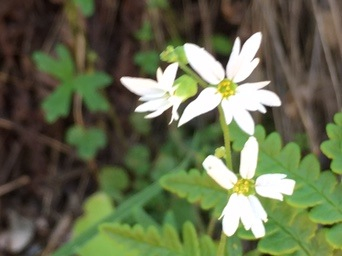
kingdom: Plantae
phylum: Tracheophyta
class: Magnoliopsida
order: Saxifragales
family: Saxifragaceae
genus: Lithophragma
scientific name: Lithophragma heterophyllum
